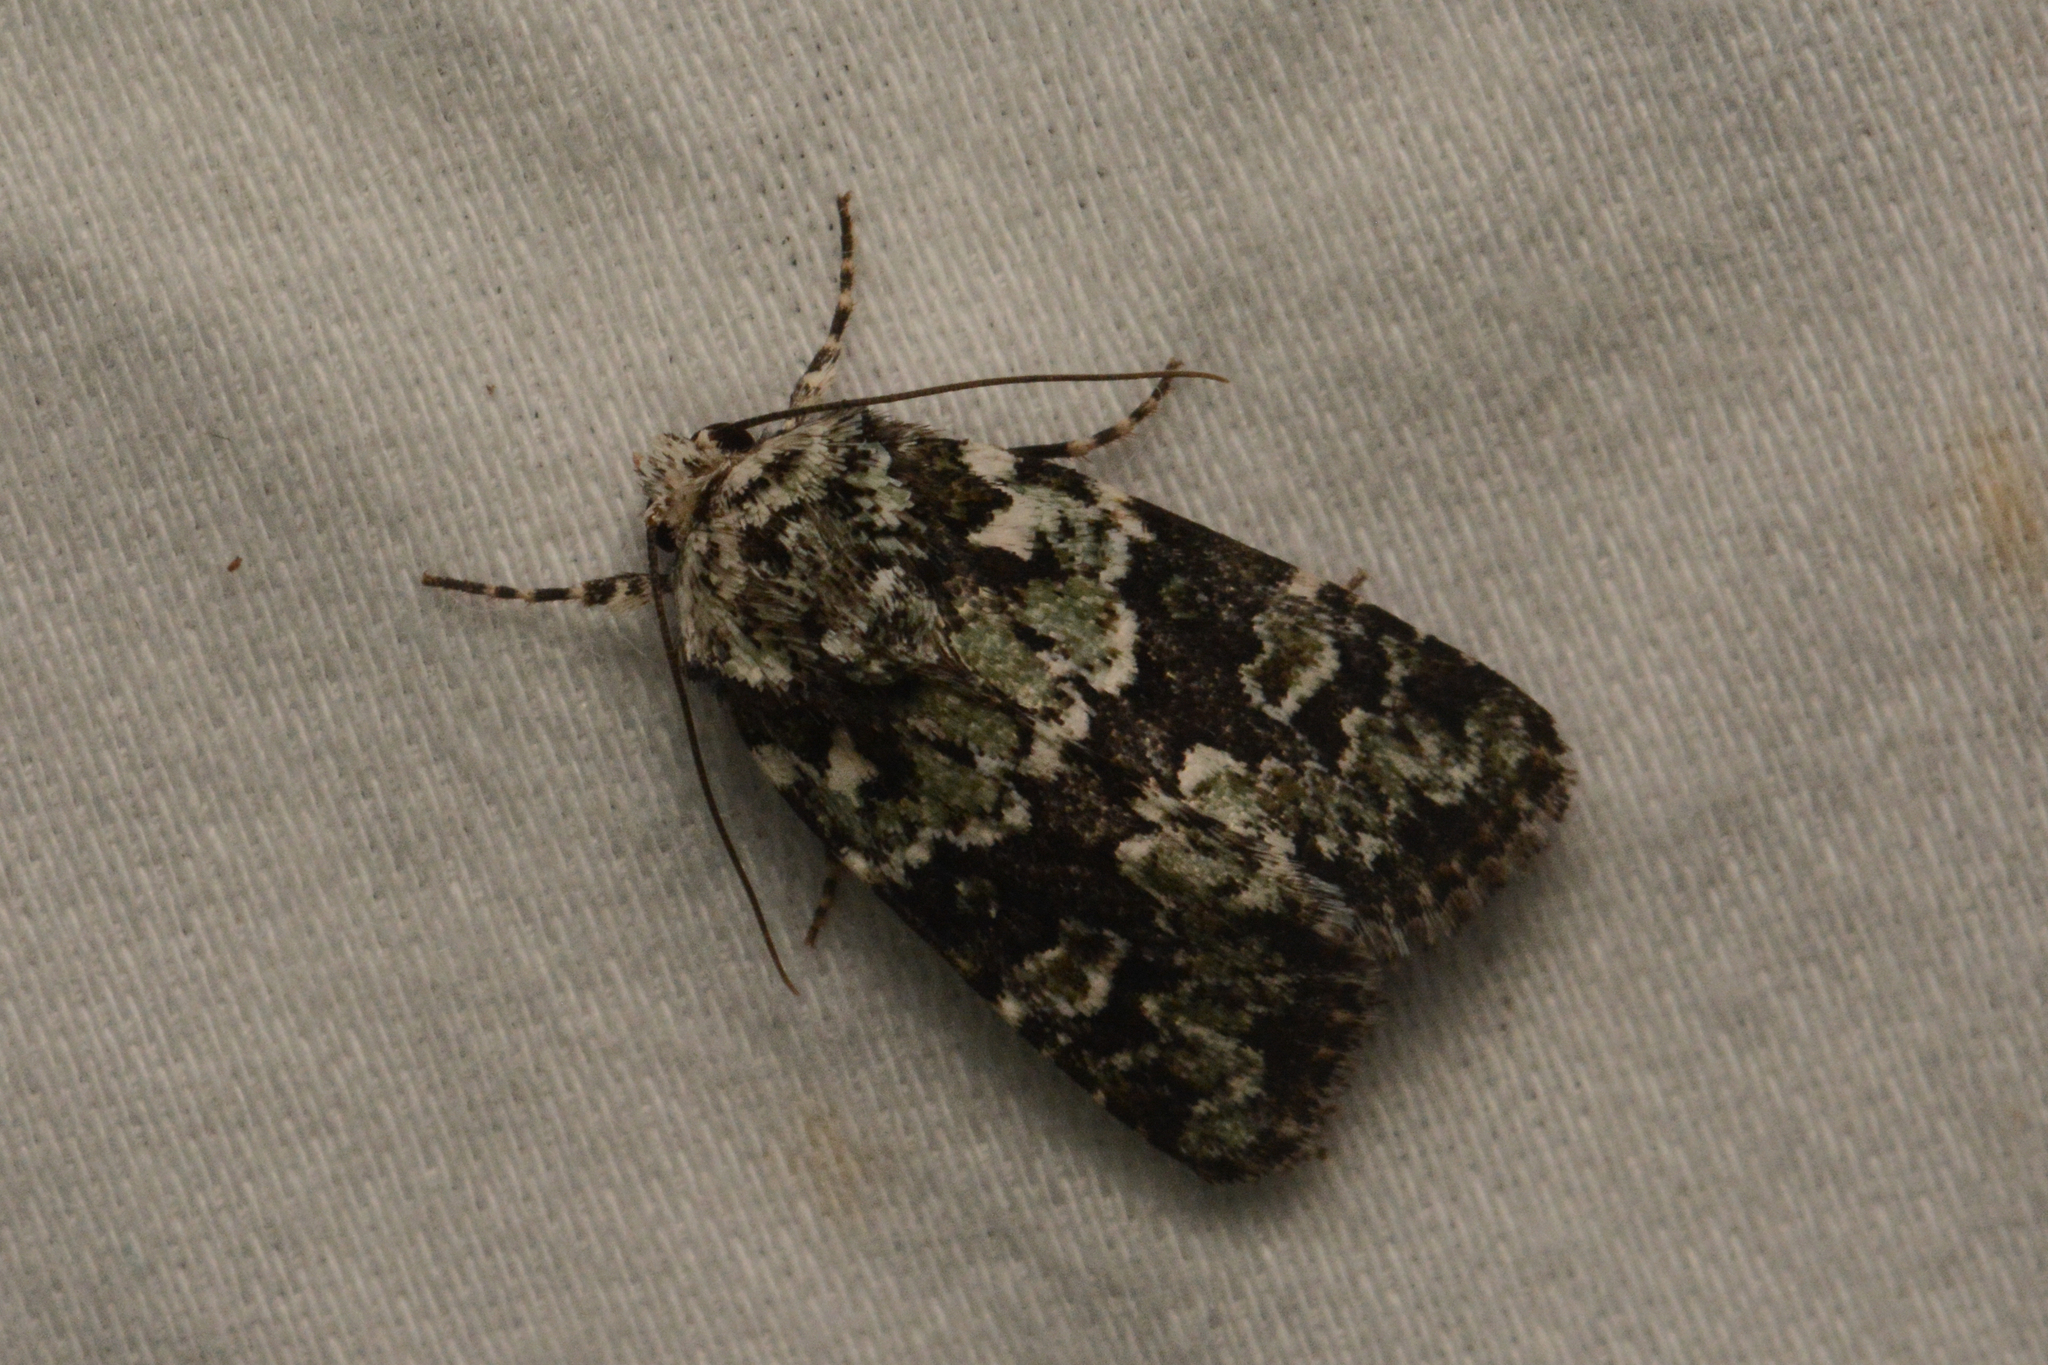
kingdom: Animalia
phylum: Arthropoda
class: Insecta
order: Lepidoptera
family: Noctuidae
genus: Lacinipolia
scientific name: Lacinipolia strigicollis
